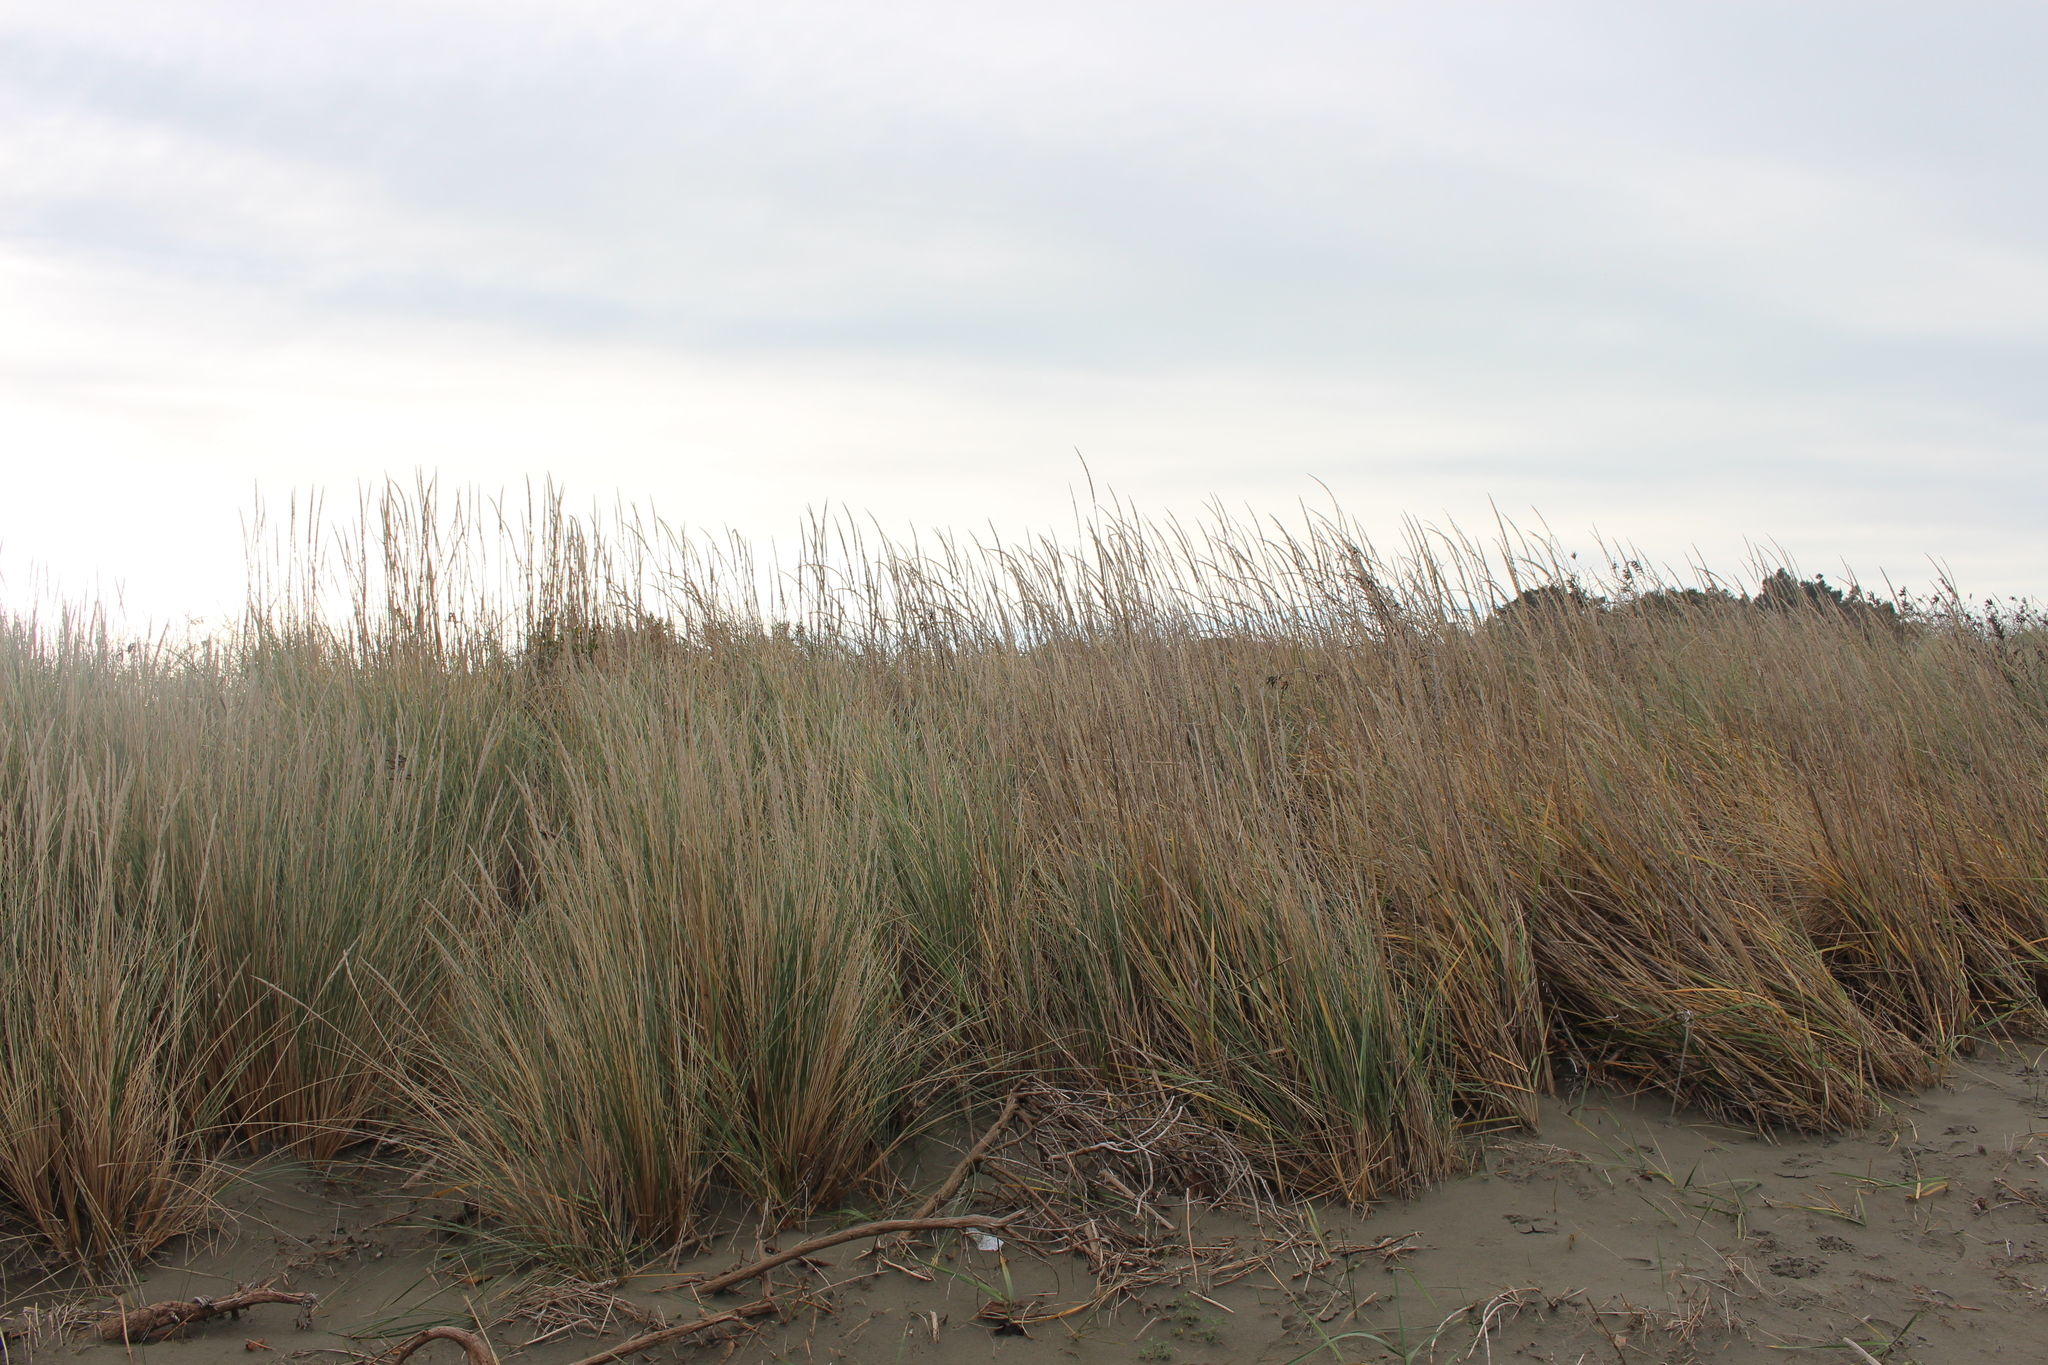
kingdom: Plantae
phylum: Tracheophyta
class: Liliopsida
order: Poales
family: Poaceae
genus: Leymus
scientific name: Leymus racemosus
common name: Mammoth wildrye
